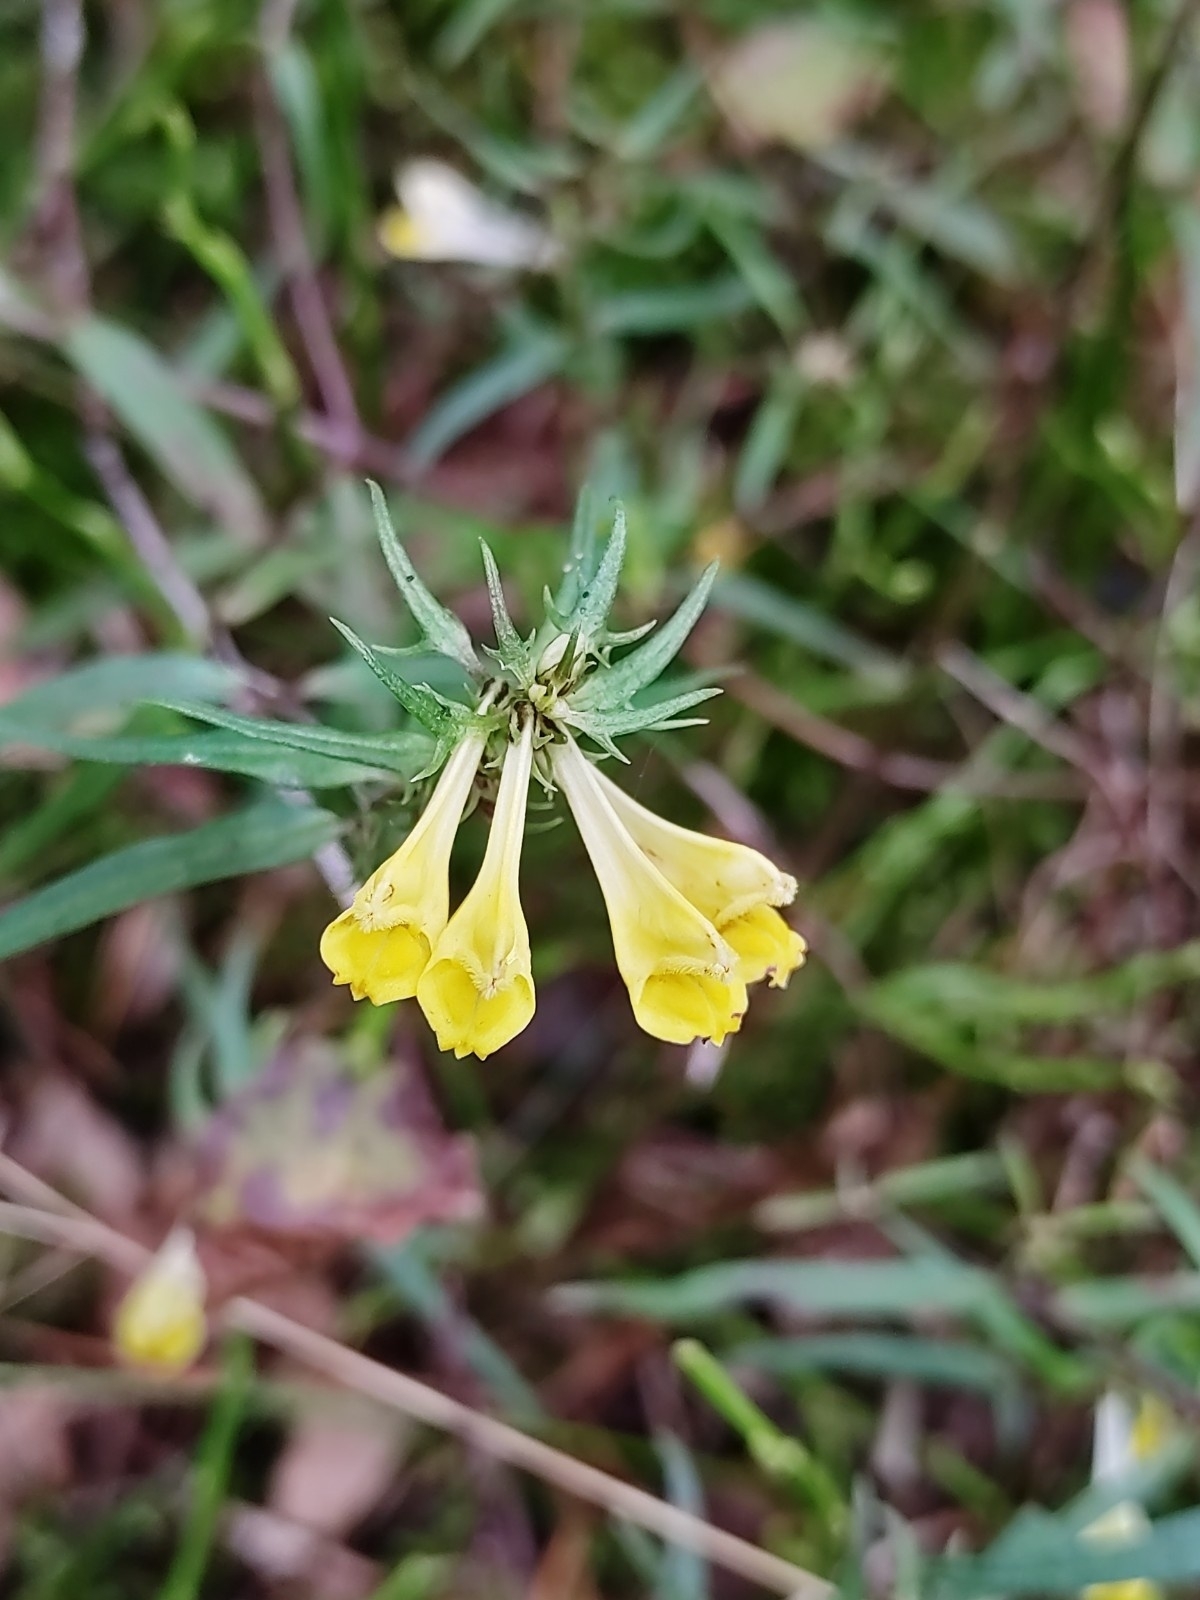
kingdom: Plantae
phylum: Tracheophyta
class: Magnoliopsida
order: Lamiales
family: Orobanchaceae
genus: Melampyrum
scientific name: Melampyrum pratense
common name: Common cow-wheat
